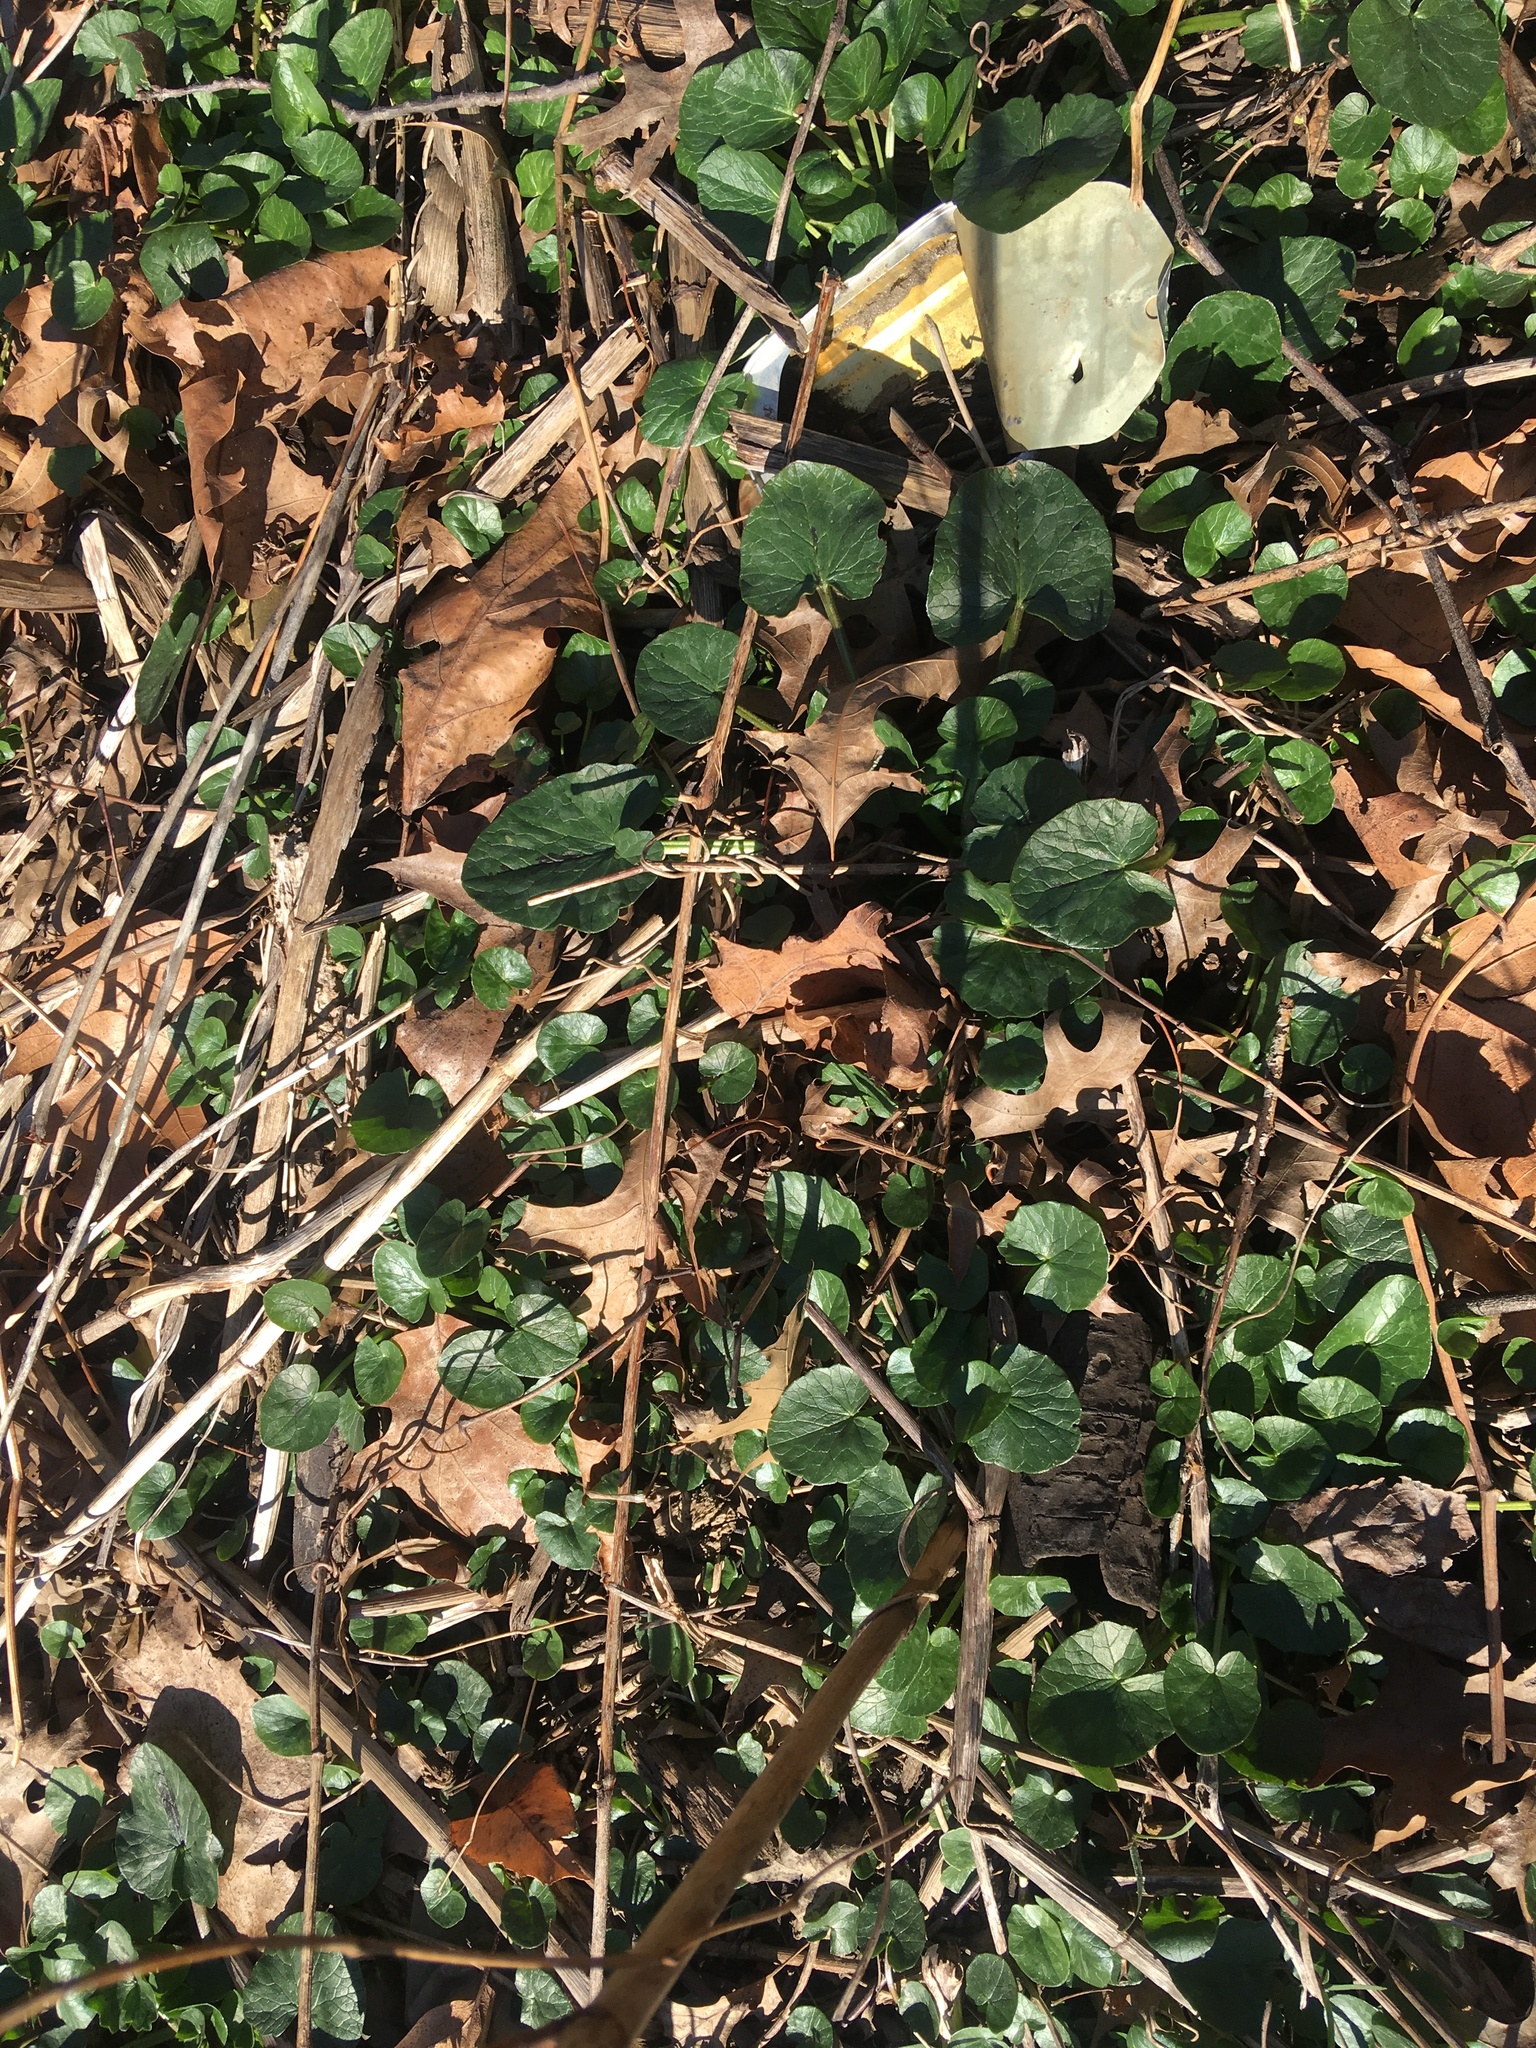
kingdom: Plantae
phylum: Tracheophyta
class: Magnoliopsida
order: Ranunculales
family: Ranunculaceae
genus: Ficaria
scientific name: Ficaria verna
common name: Lesser celandine
